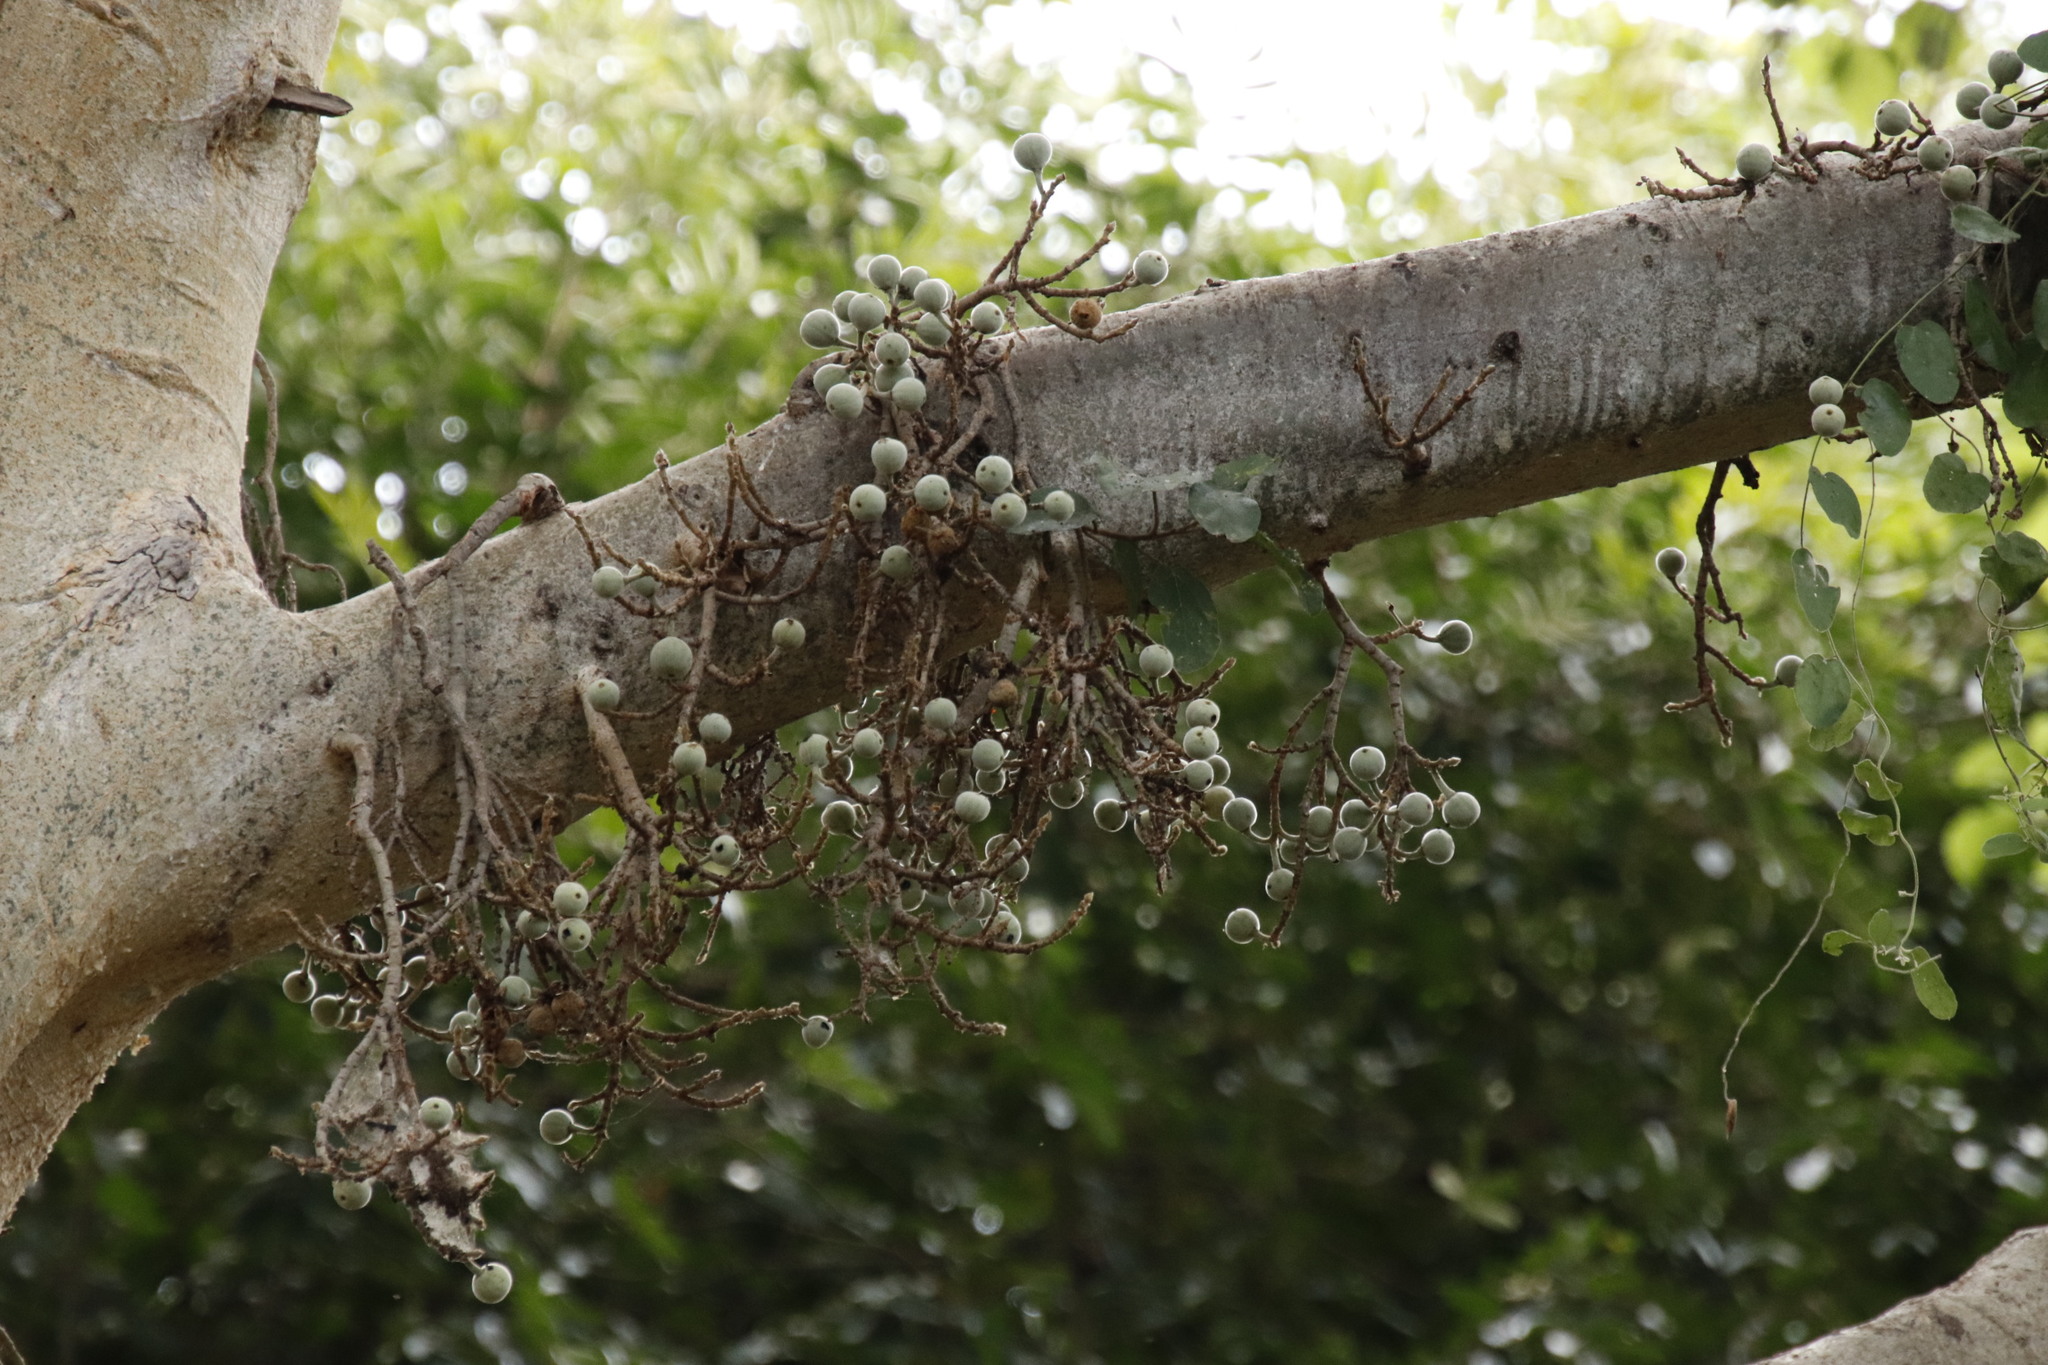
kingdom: Plantae
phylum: Tracheophyta
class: Magnoliopsida
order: Rosales
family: Moraceae
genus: Ficus
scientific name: Ficus sycomorus
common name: Sycomore
